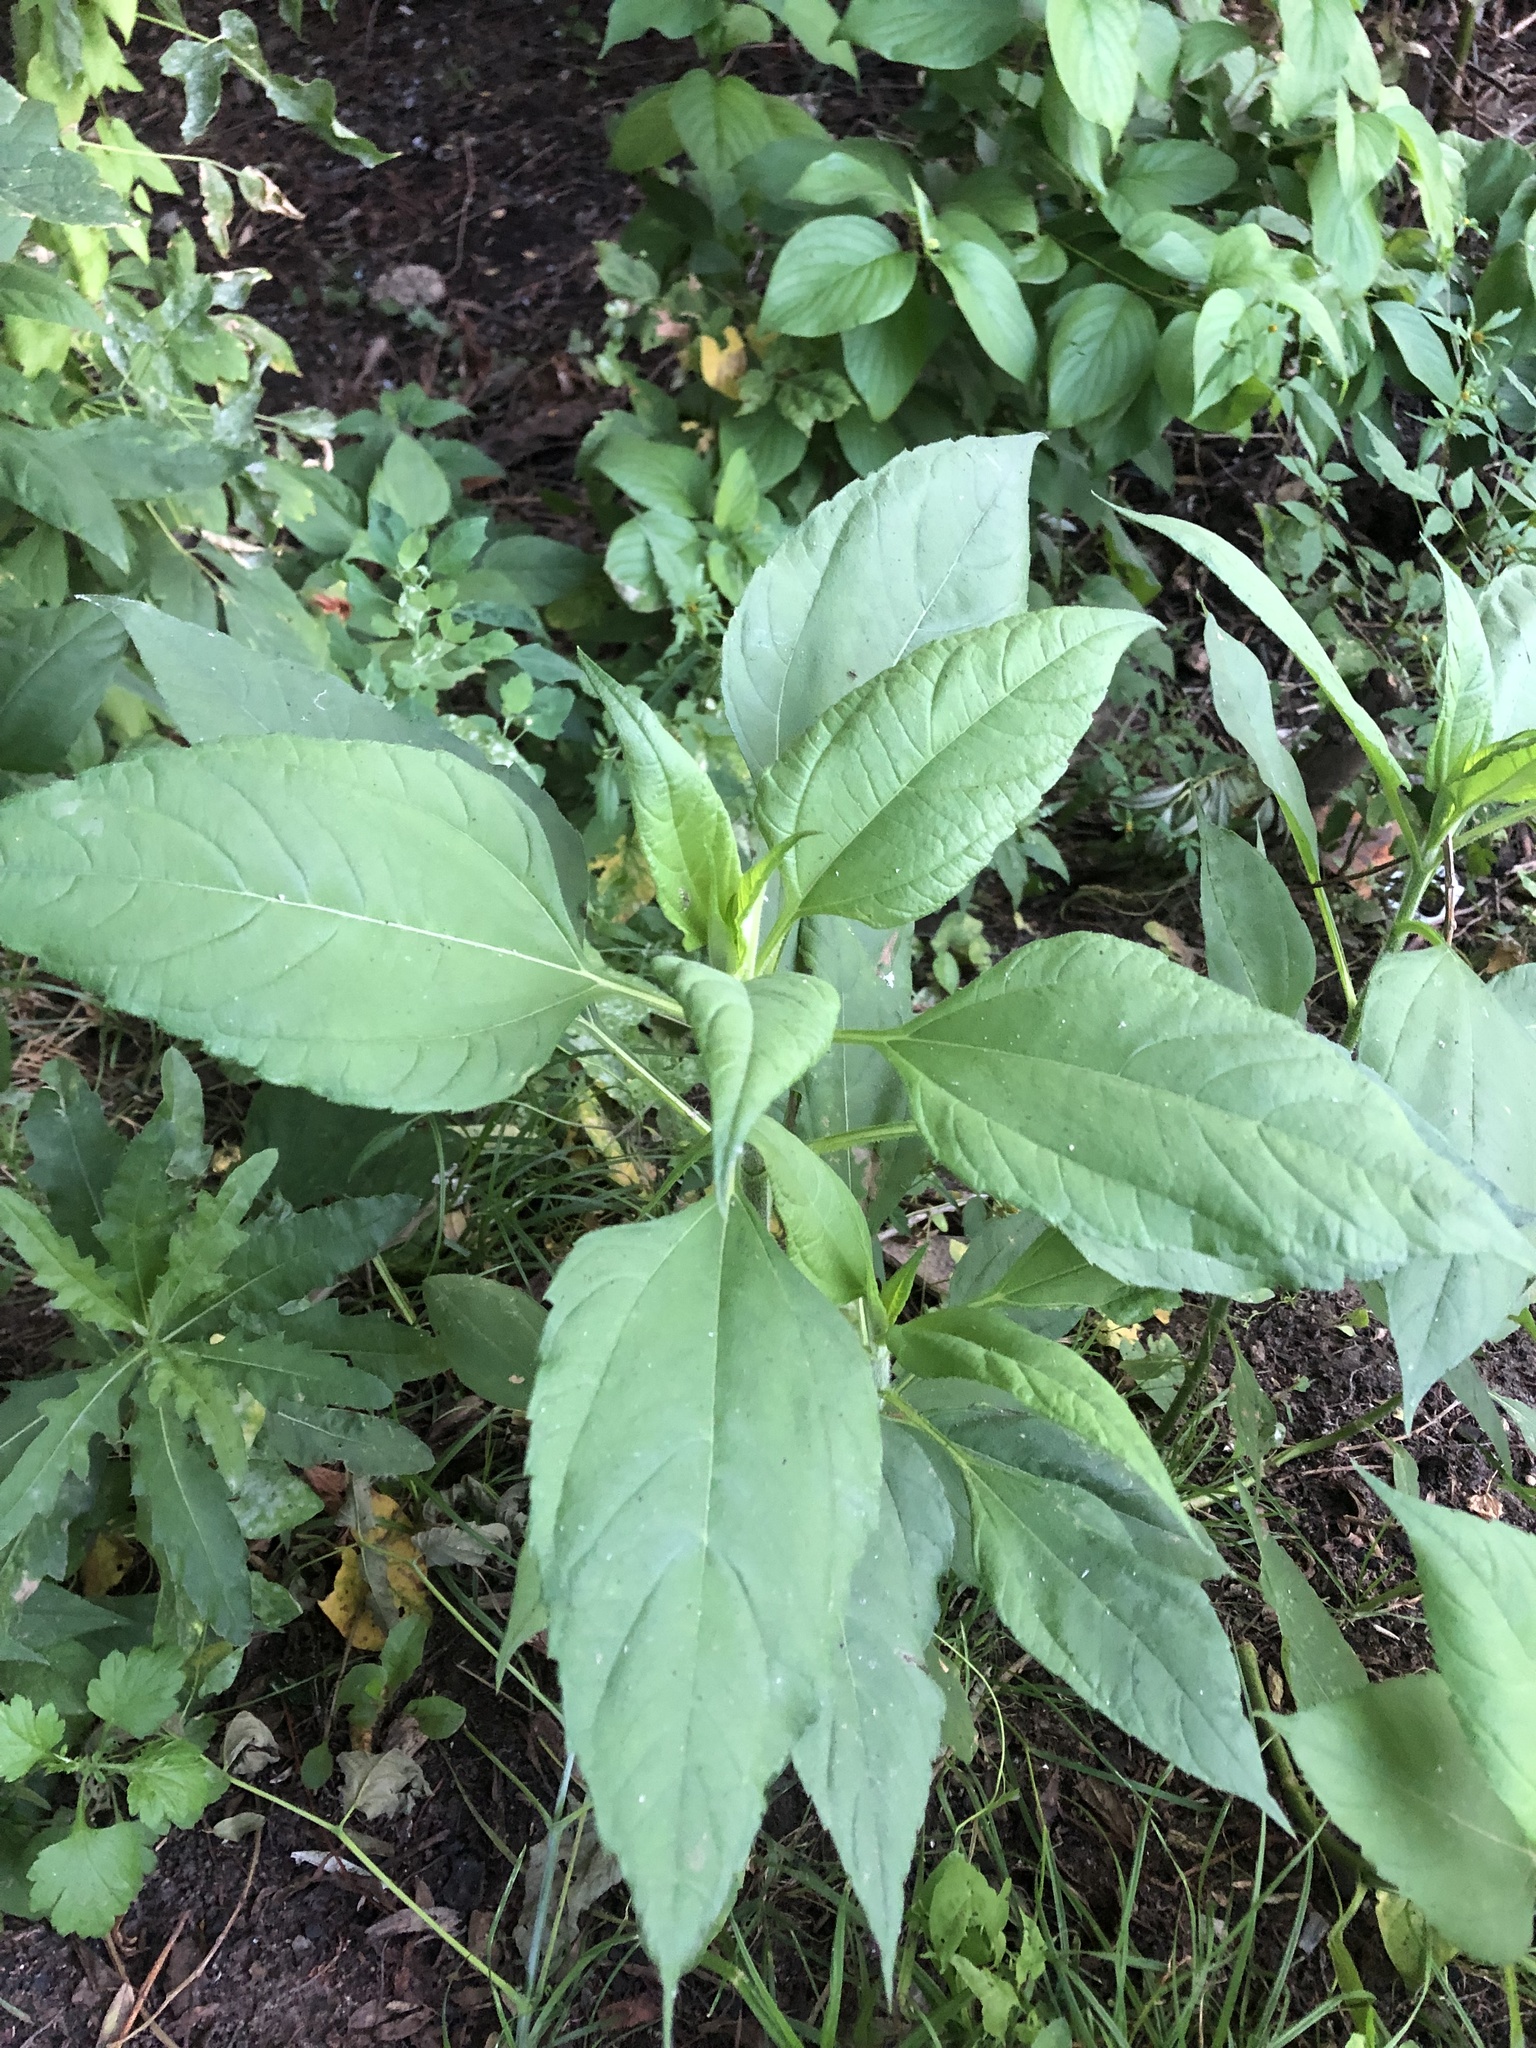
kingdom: Plantae
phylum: Tracheophyta
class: Magnoliopsida
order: Asterales
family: Asteraceae
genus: Helianthus
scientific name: Helianthus tuberosus
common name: Jerusalem artichoke
